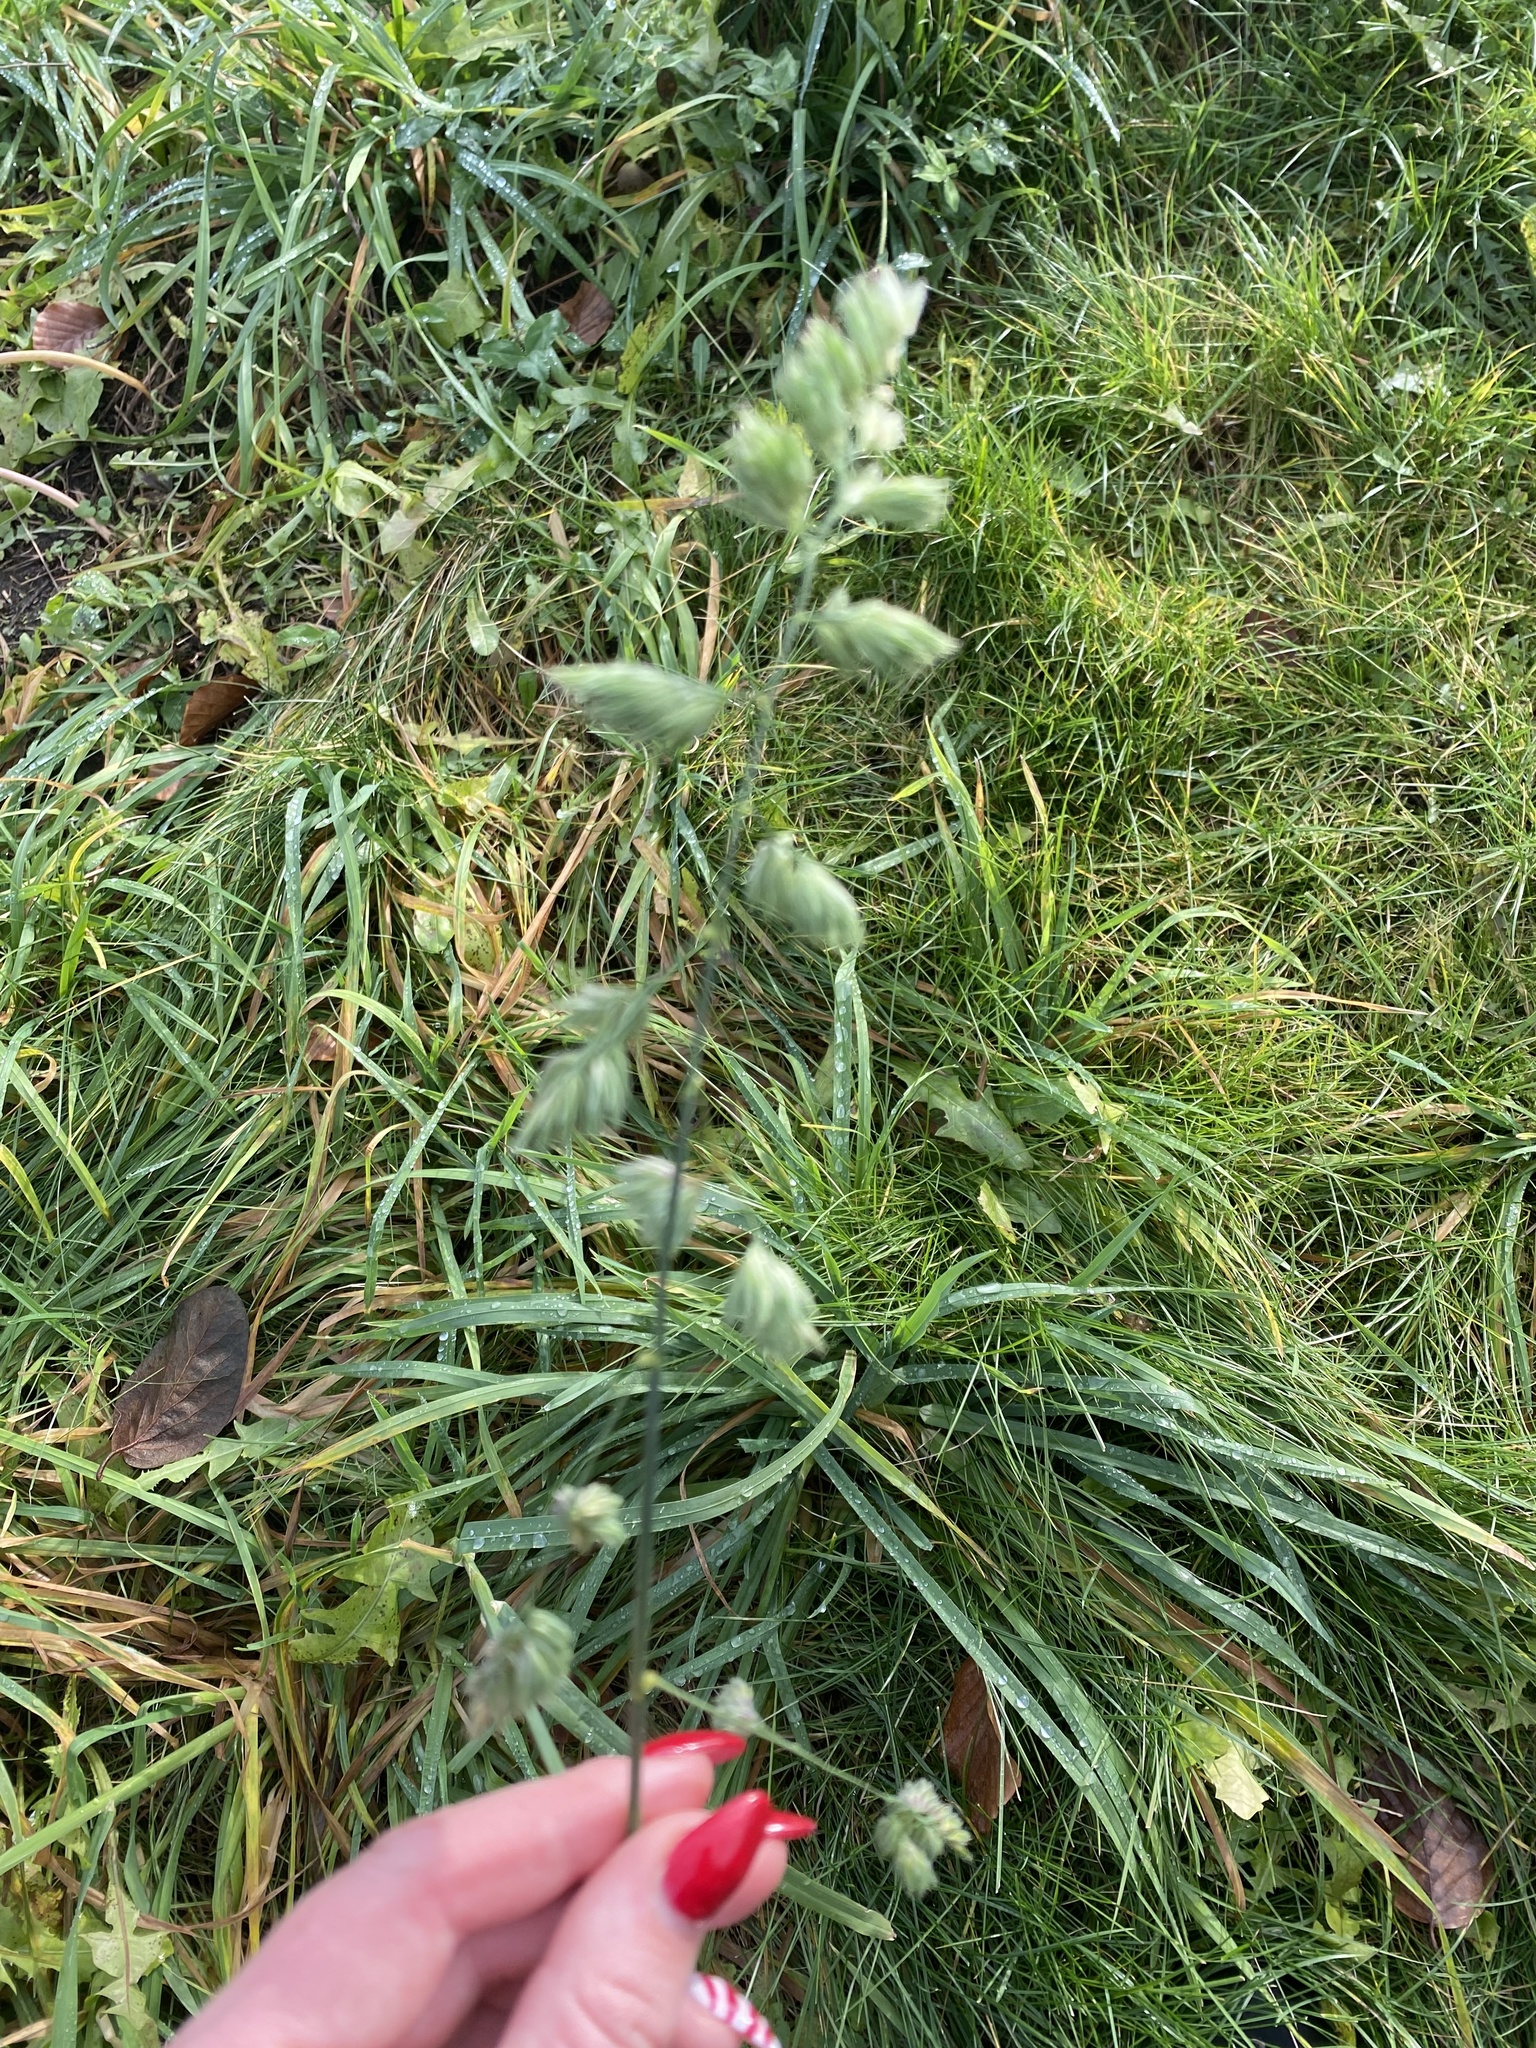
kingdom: Plantae
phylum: Tracheophyta
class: Liliopsida
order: Poales
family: Poaceae
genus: Dactylis
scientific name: Dactylis glomerata
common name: Orchardgrass
